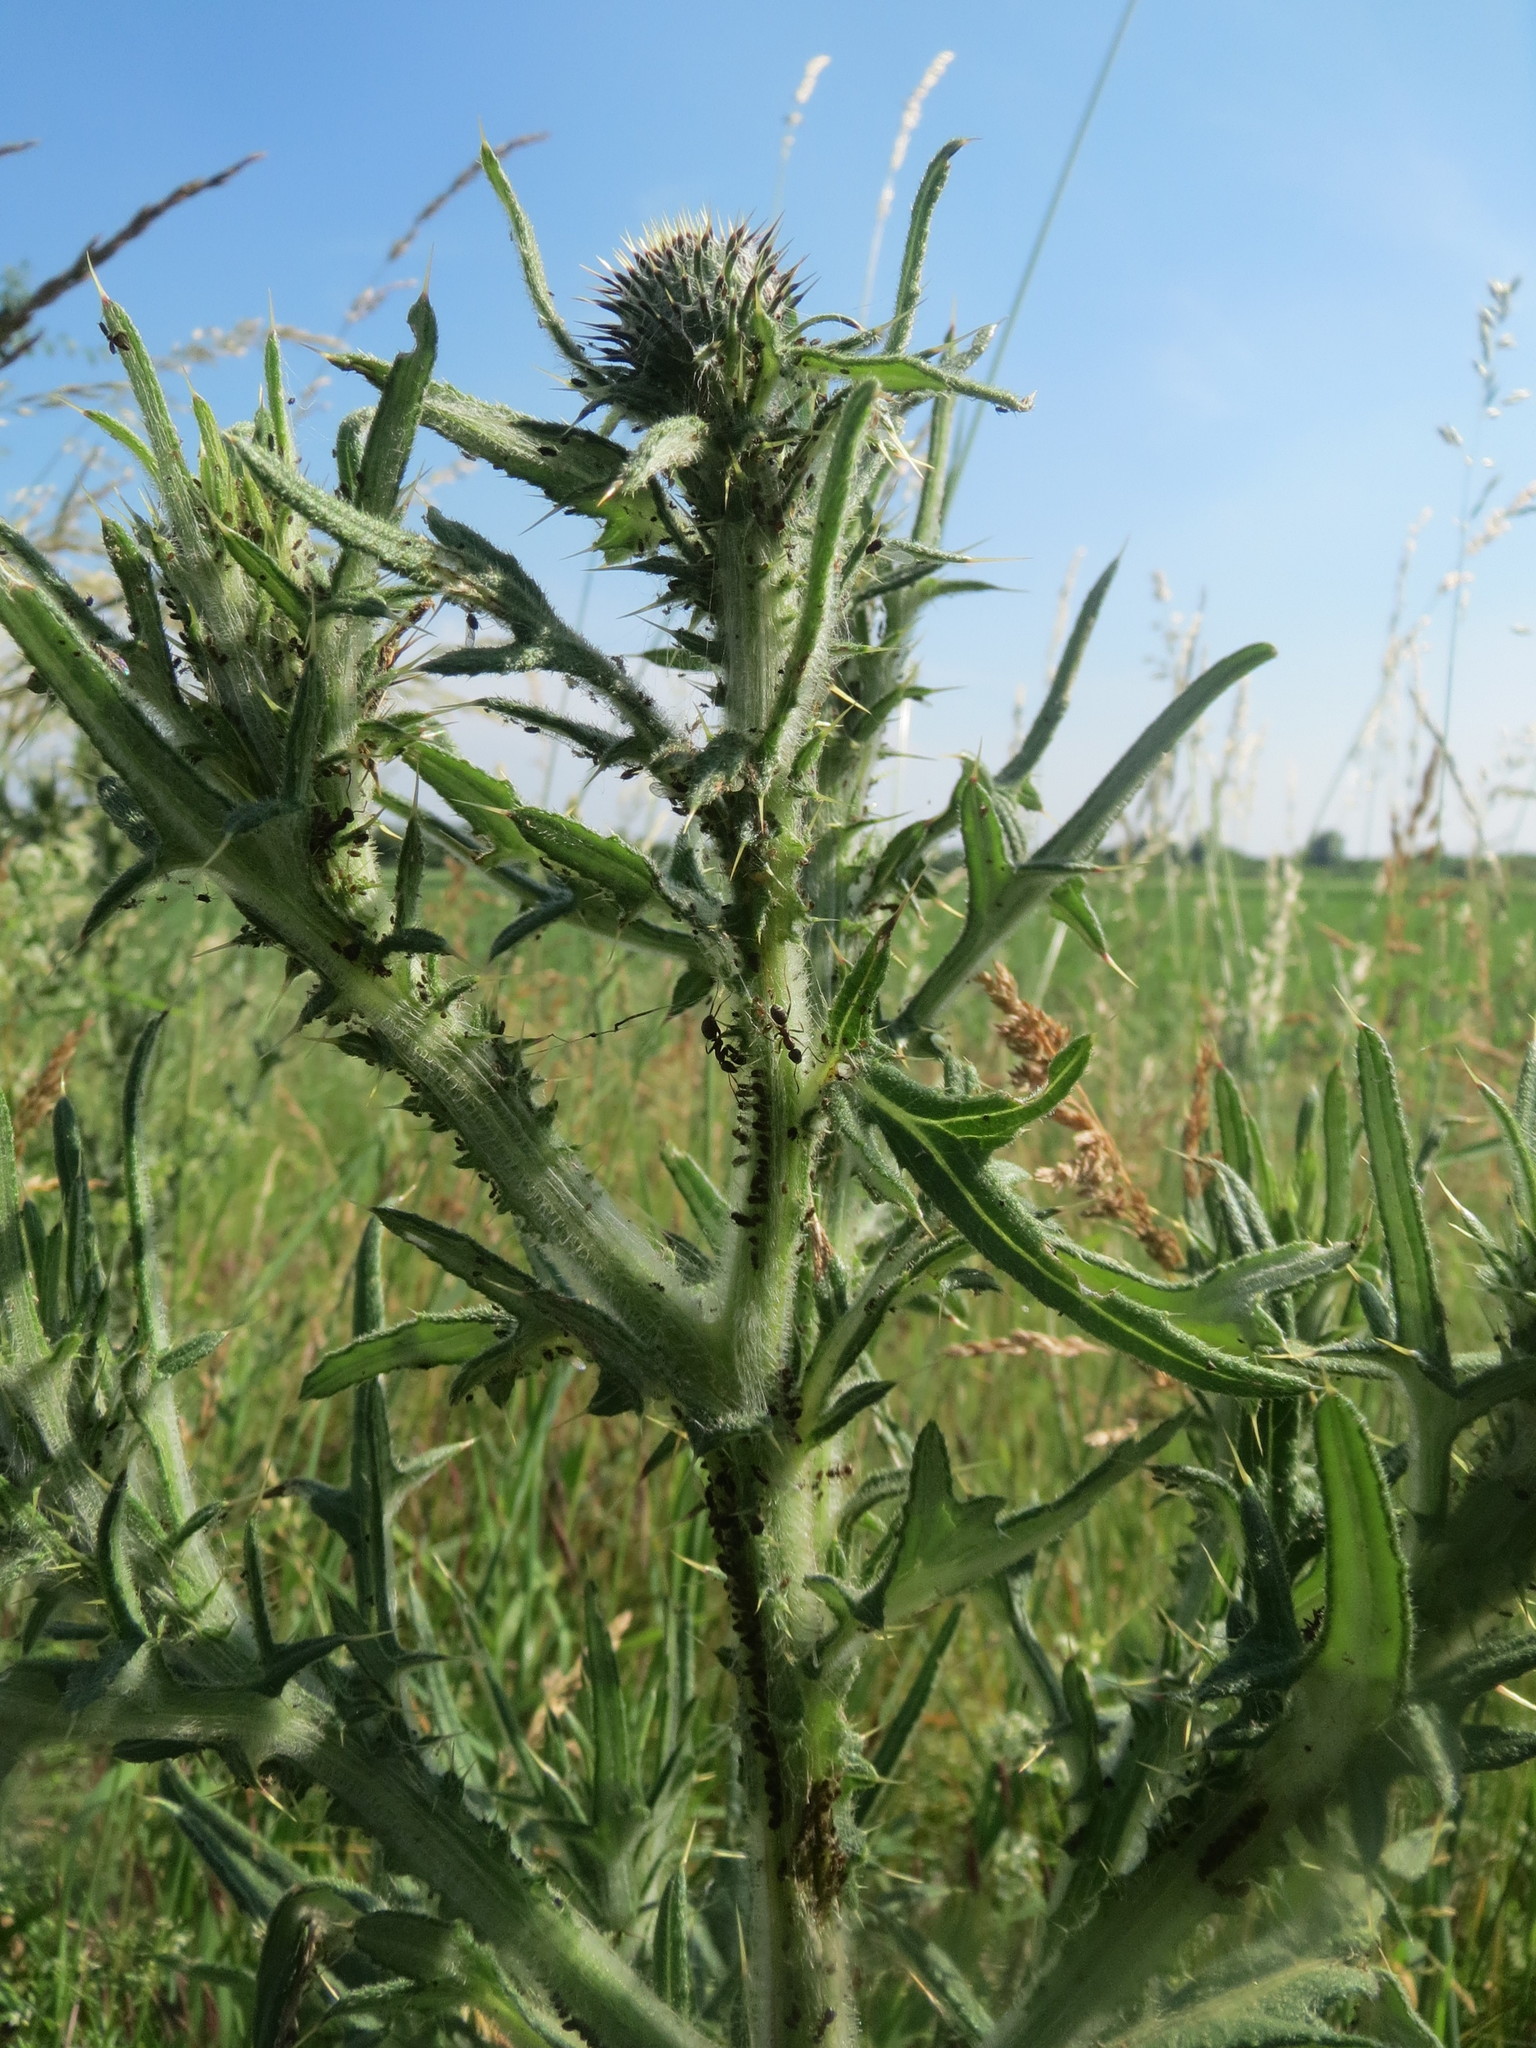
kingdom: Plantae
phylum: Tracheophyta
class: Magnoliopsida
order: Asterales
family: Asteraceae
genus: Cirsium
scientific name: Cirsium vulgare
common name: Bull thistle
